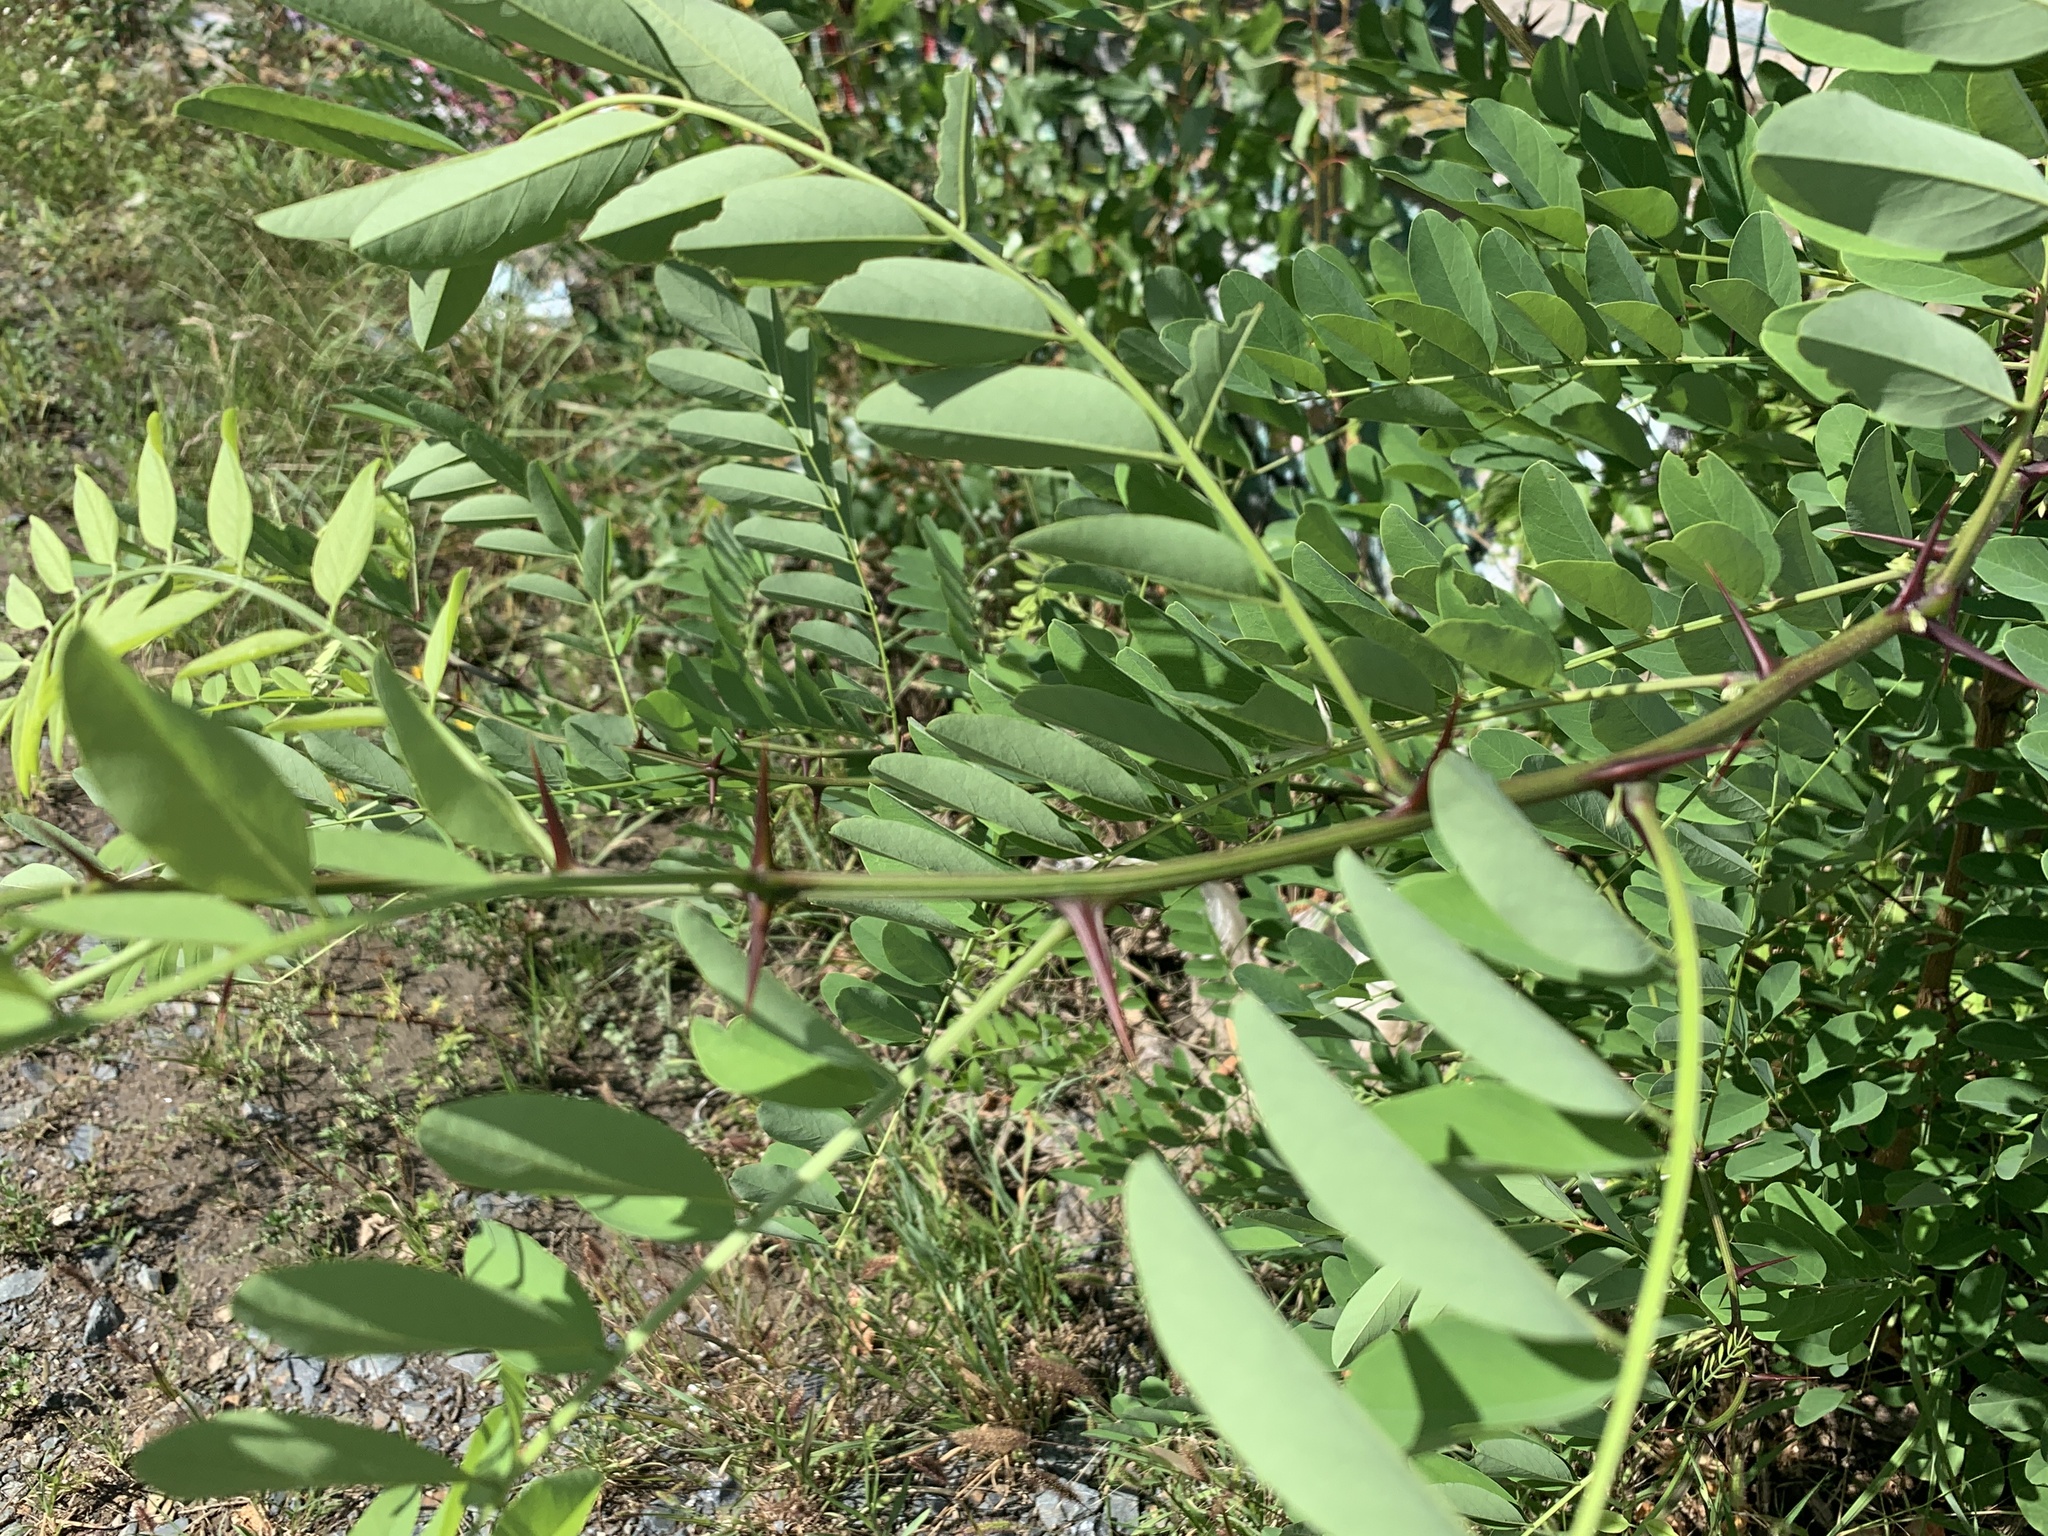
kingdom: Plantae
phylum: Tracheophyta
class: Magnoliopsida
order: Fabales
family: Fabaceae
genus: Robinia
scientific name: Robinia pseudoacacia
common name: Black locust
